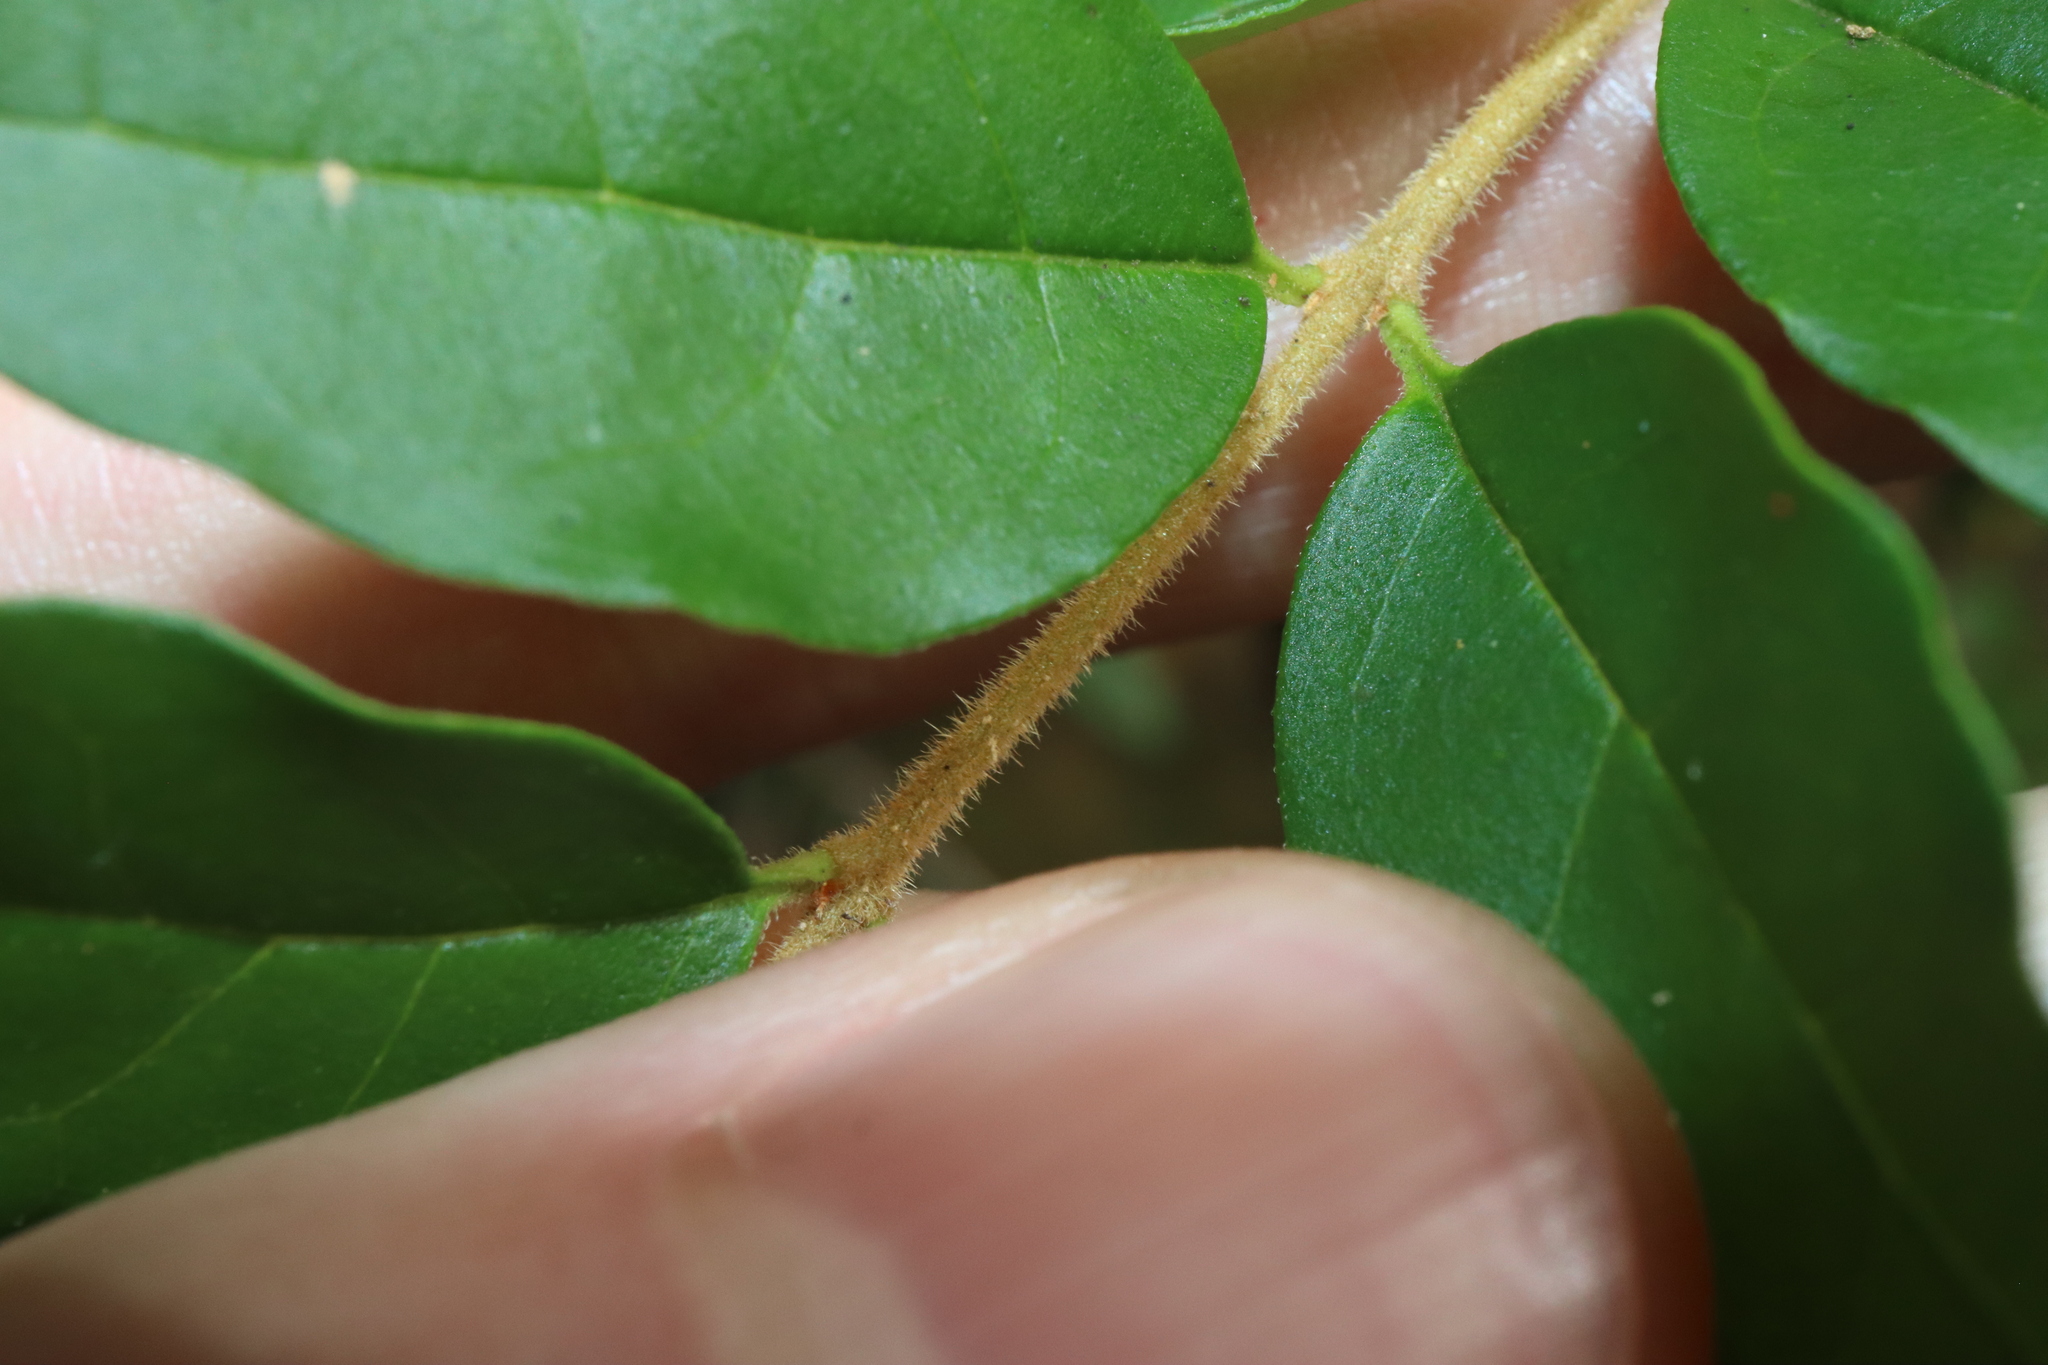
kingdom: Plantae
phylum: Tracheophyta
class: Magnoliopsida
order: Lamiales
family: Oleaceae
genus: Ligustrum
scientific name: Ligustrum sinense
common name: Chinese privet
